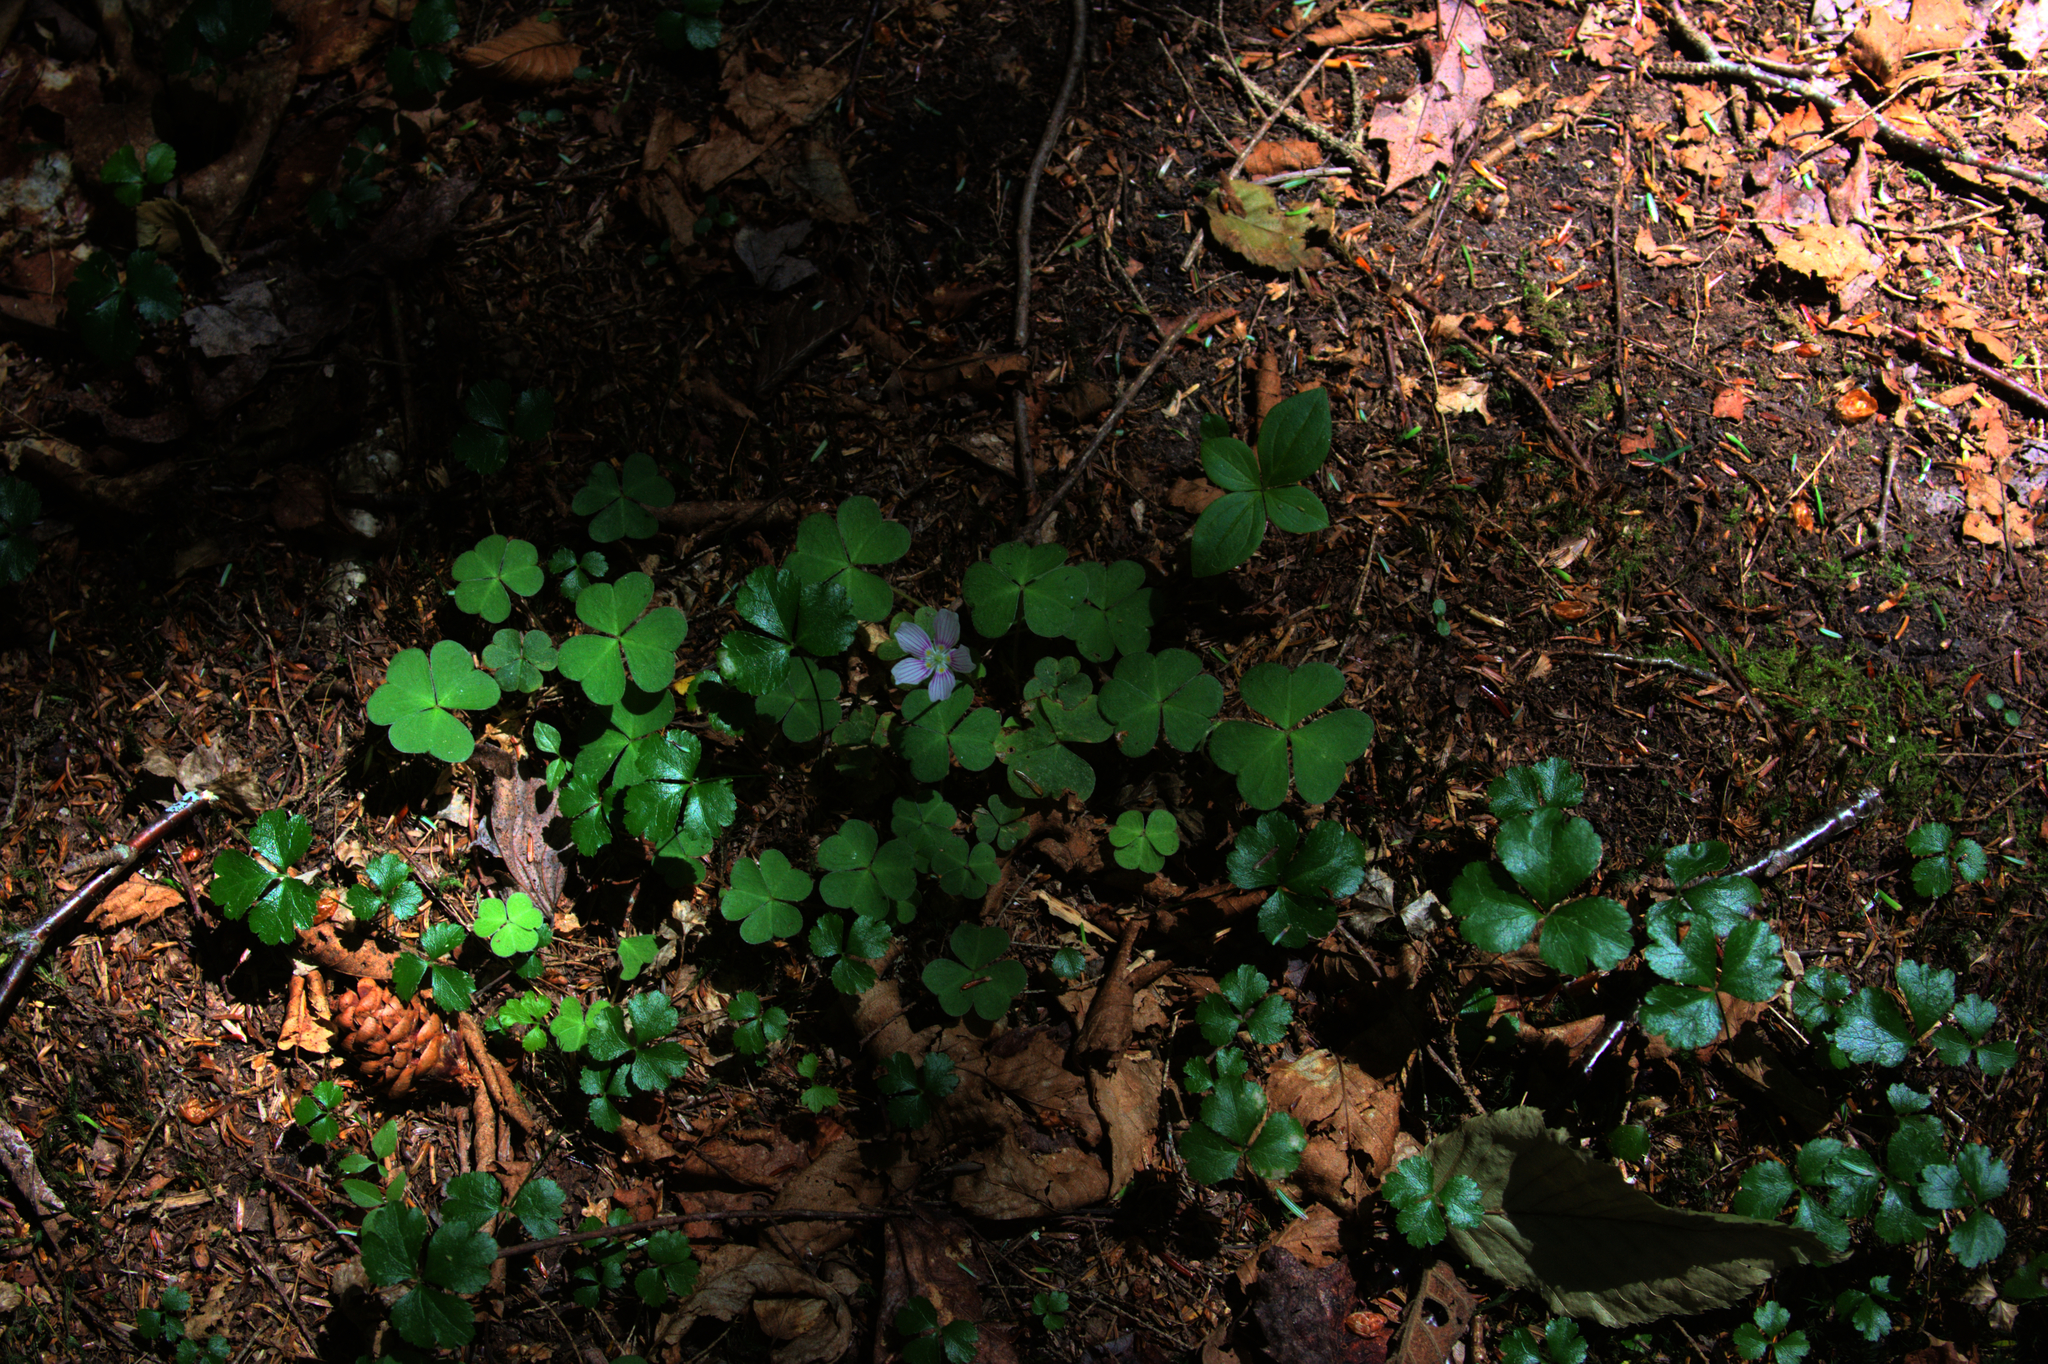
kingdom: Plantae
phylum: Tracheophyta
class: Magnoliopsida
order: Oxalidales
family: Oxalidaceae
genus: Oxalis
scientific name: Oxalis montana
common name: American wood-sorrel
